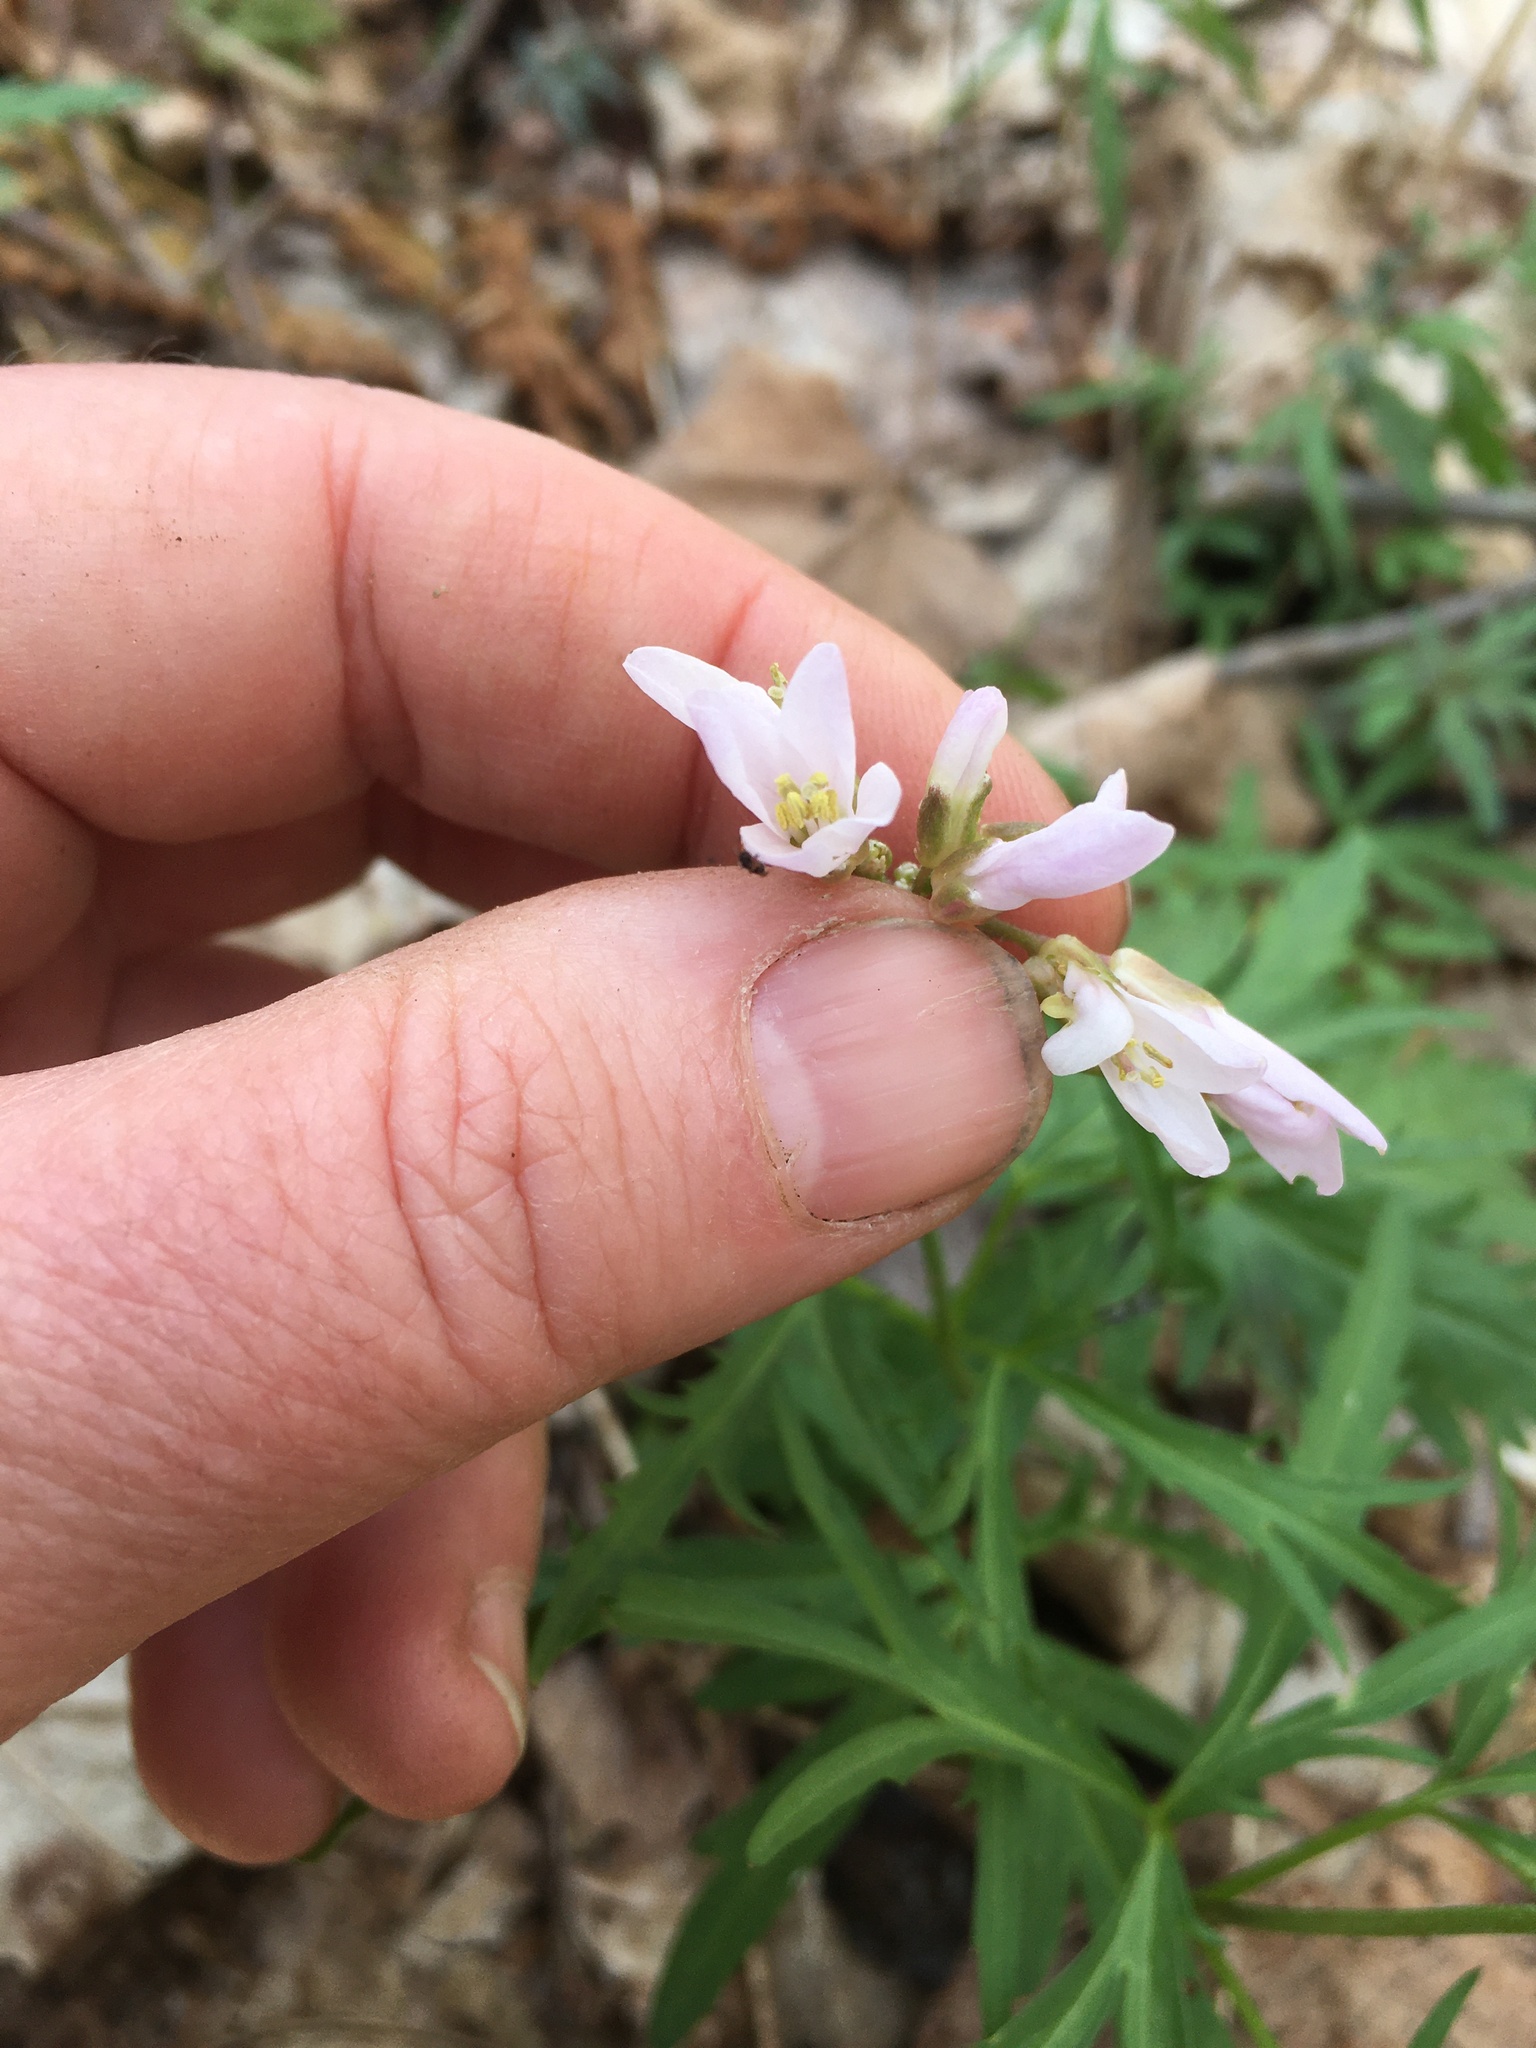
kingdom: Plantae
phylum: Tracheophyta
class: Magnoliopsida
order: Brassicales
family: Brassicaceae
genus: Cardamine
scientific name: Cardamine concatenata
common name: Cut-leaf toothcup
